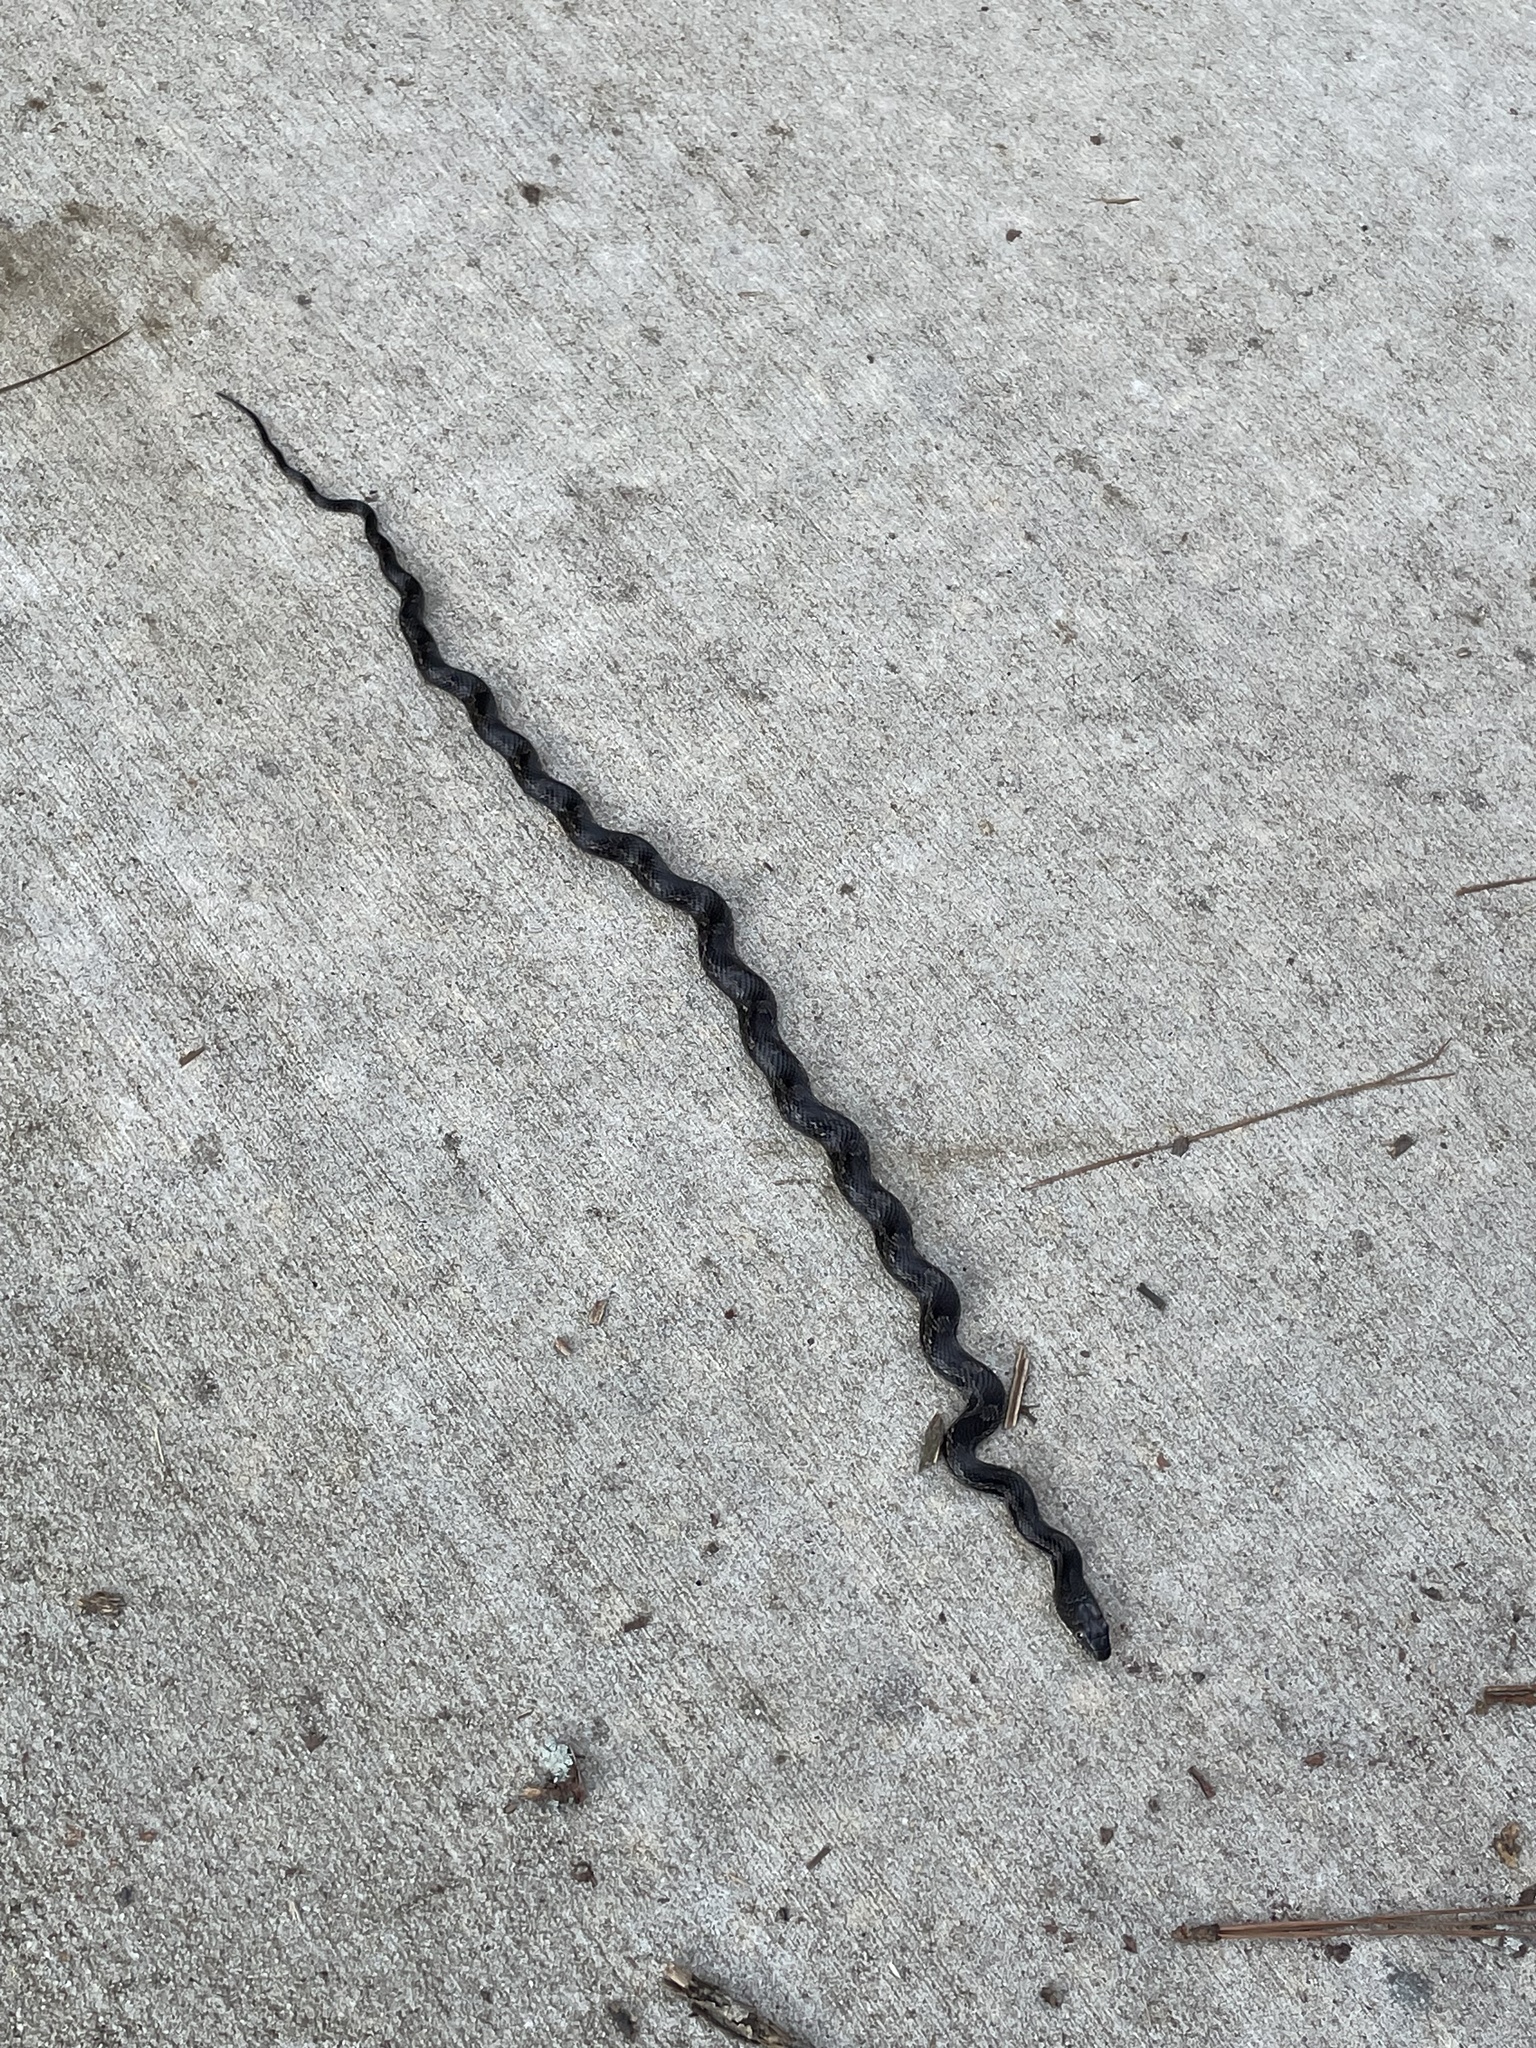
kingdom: Animalia
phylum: Chordata
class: Squamata
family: Colubridae
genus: Pantherophis
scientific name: Pantherophis
